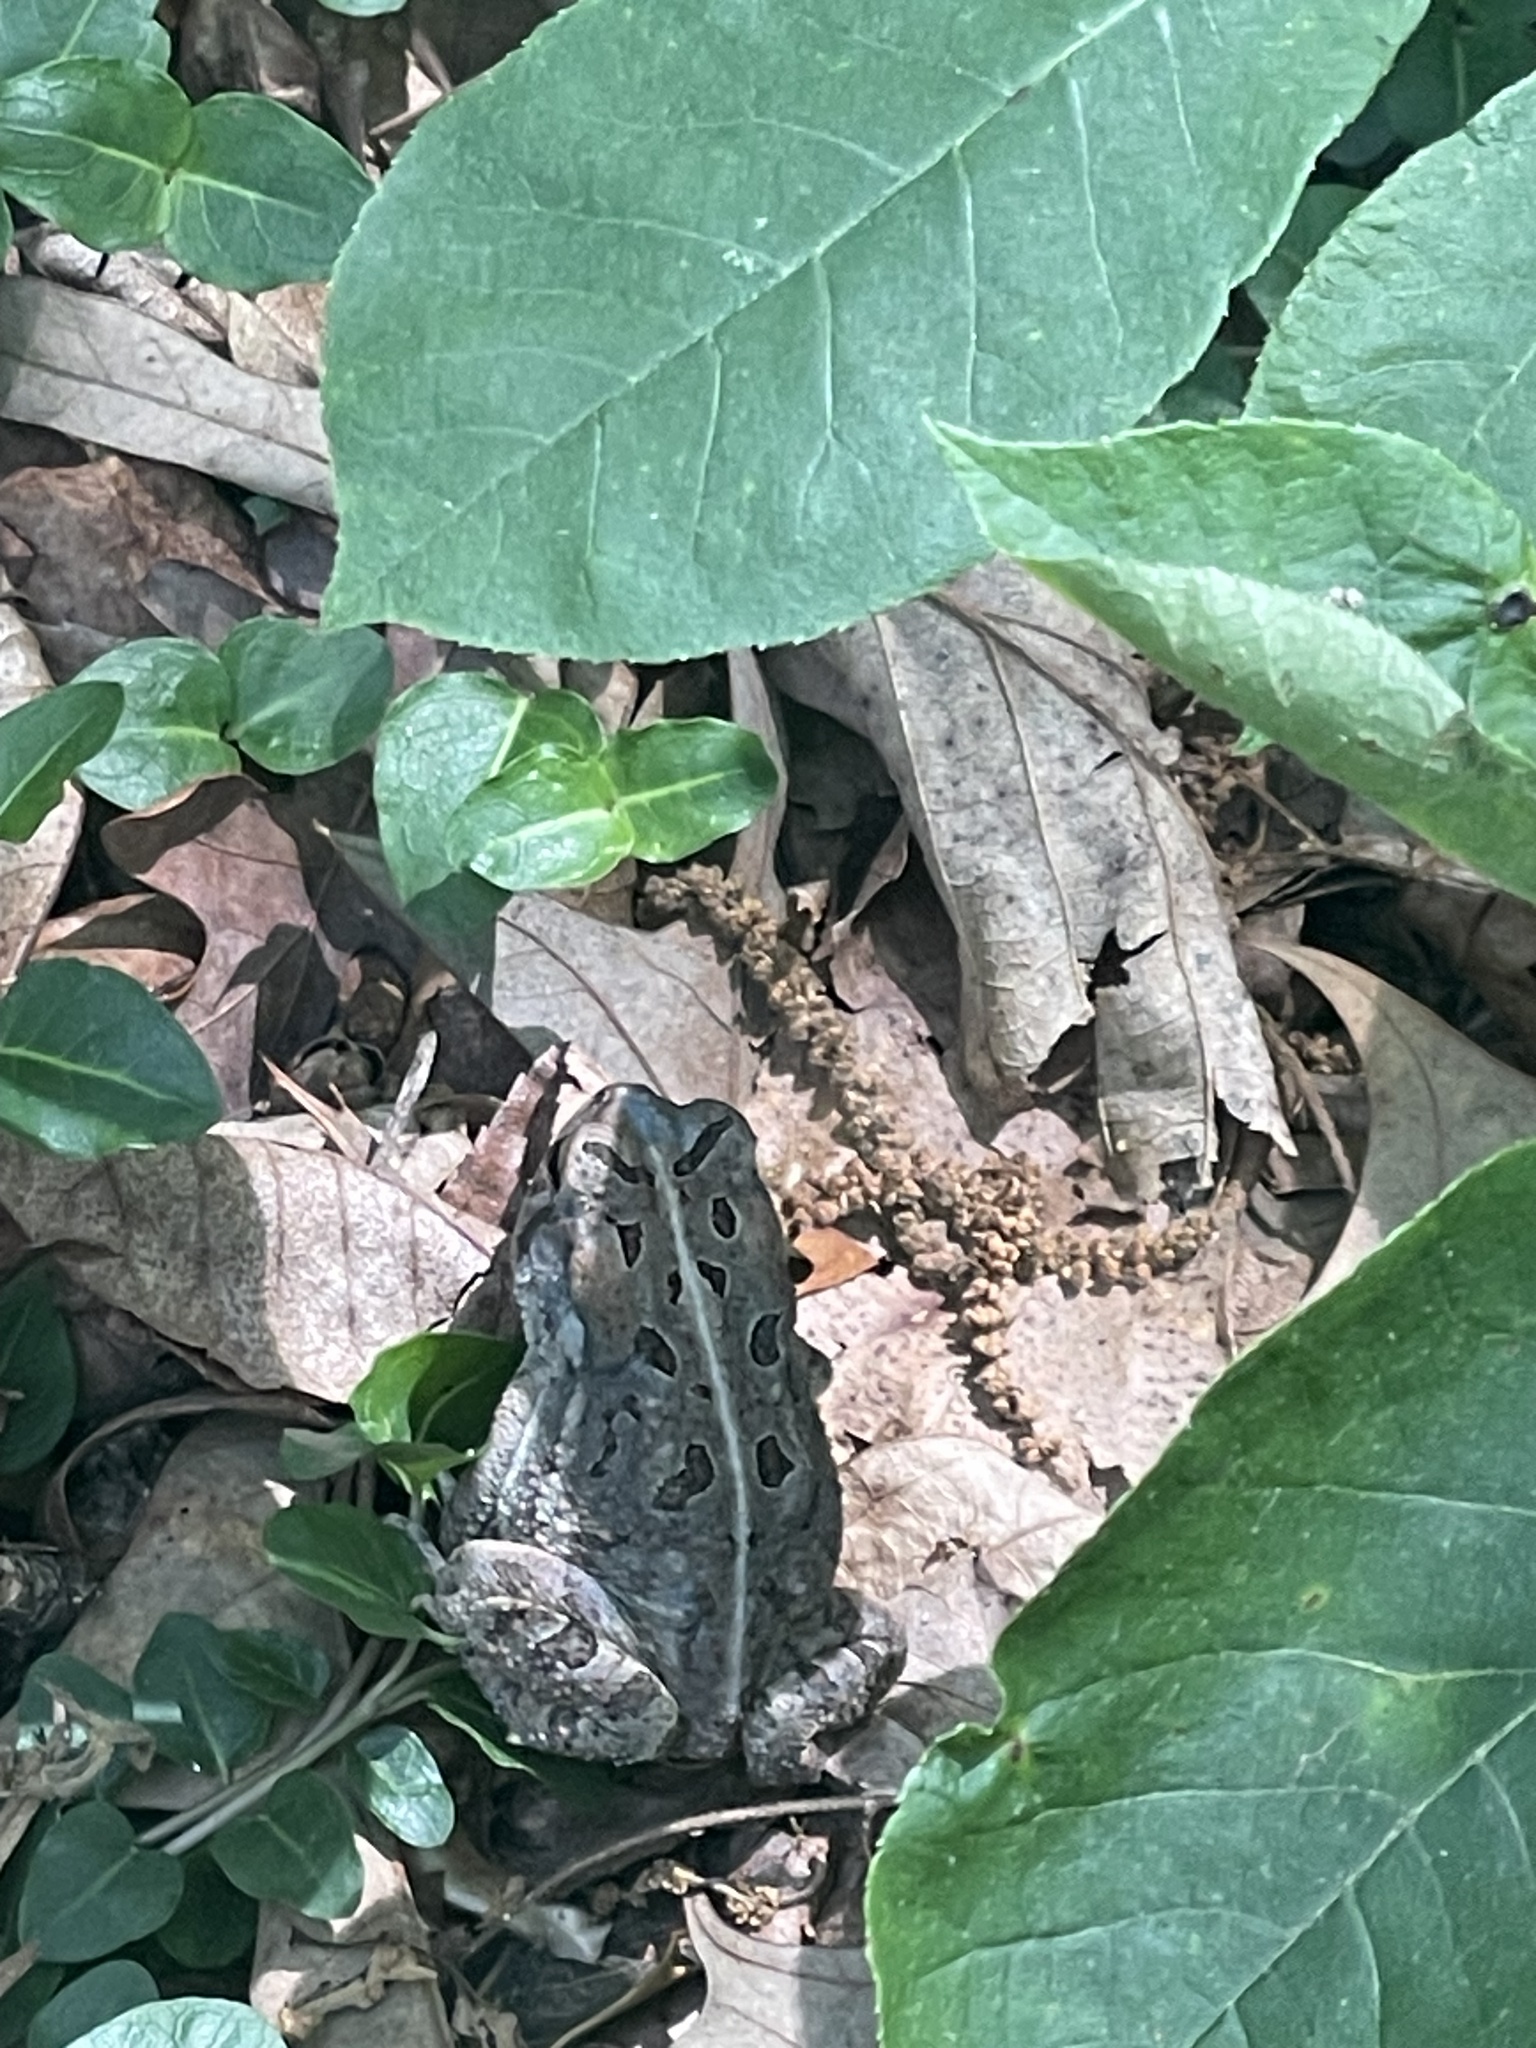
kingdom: Animalia
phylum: Chordata
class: Amphibia
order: Anura
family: Bufonidae
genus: Anaxyrus
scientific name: Anaxyrus fowleri
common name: Fowler's toad
